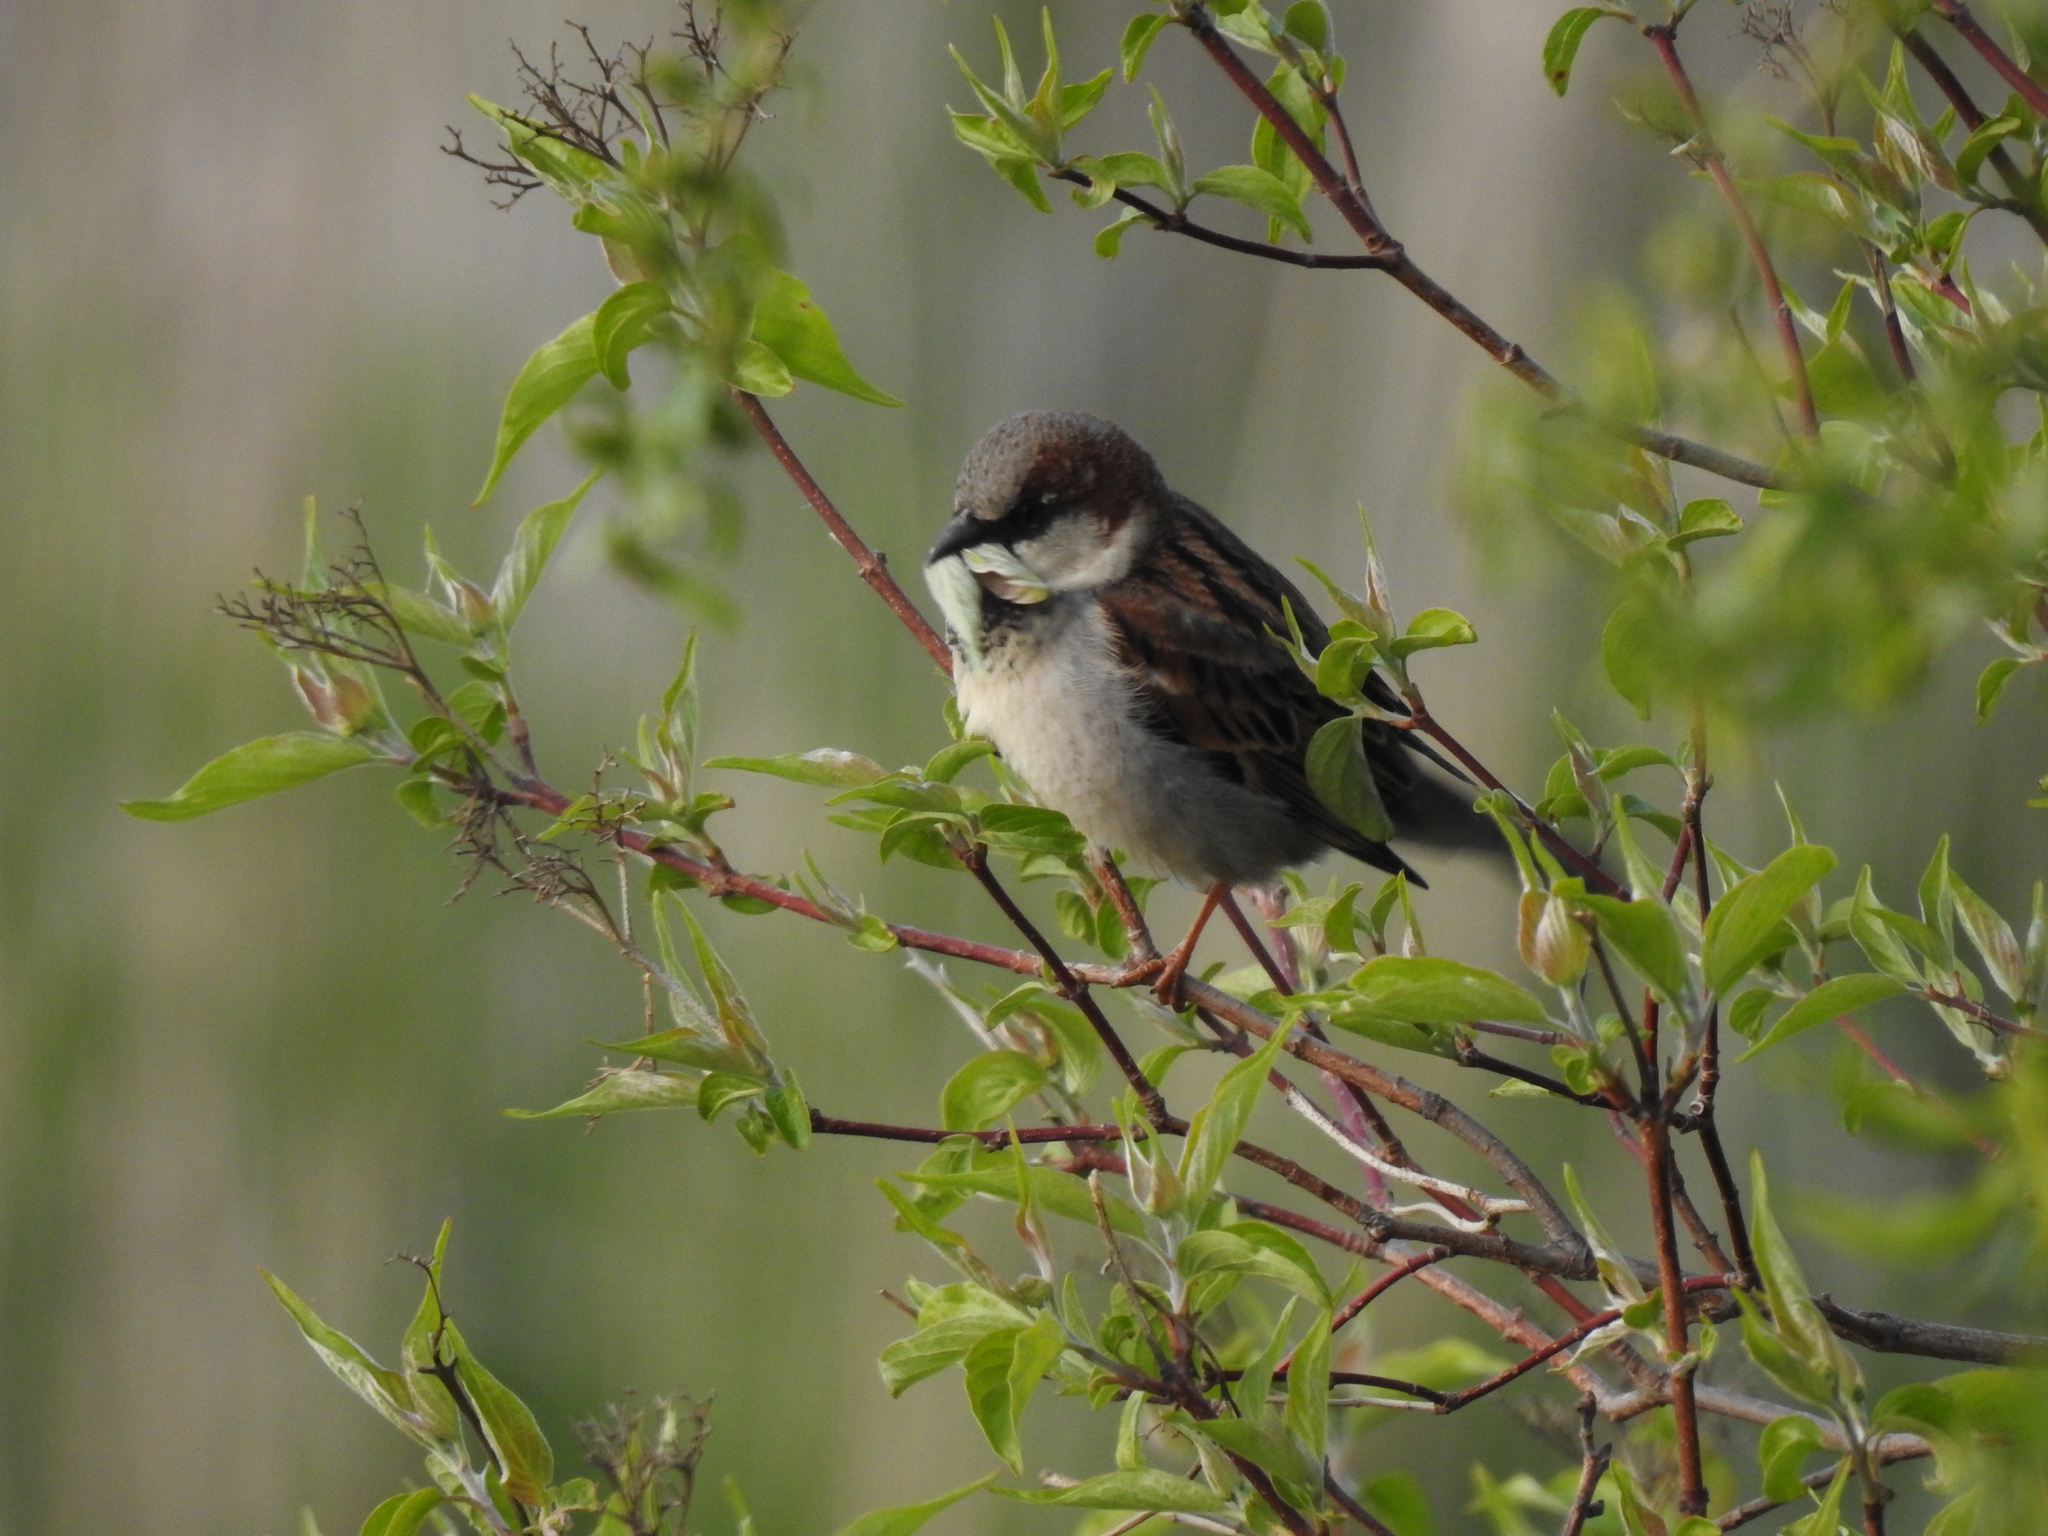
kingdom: Animalia
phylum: Chordata
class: Aves
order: Passeriformes
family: Passeridae
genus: Passer
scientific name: Passer domesticus
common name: House sparrow
